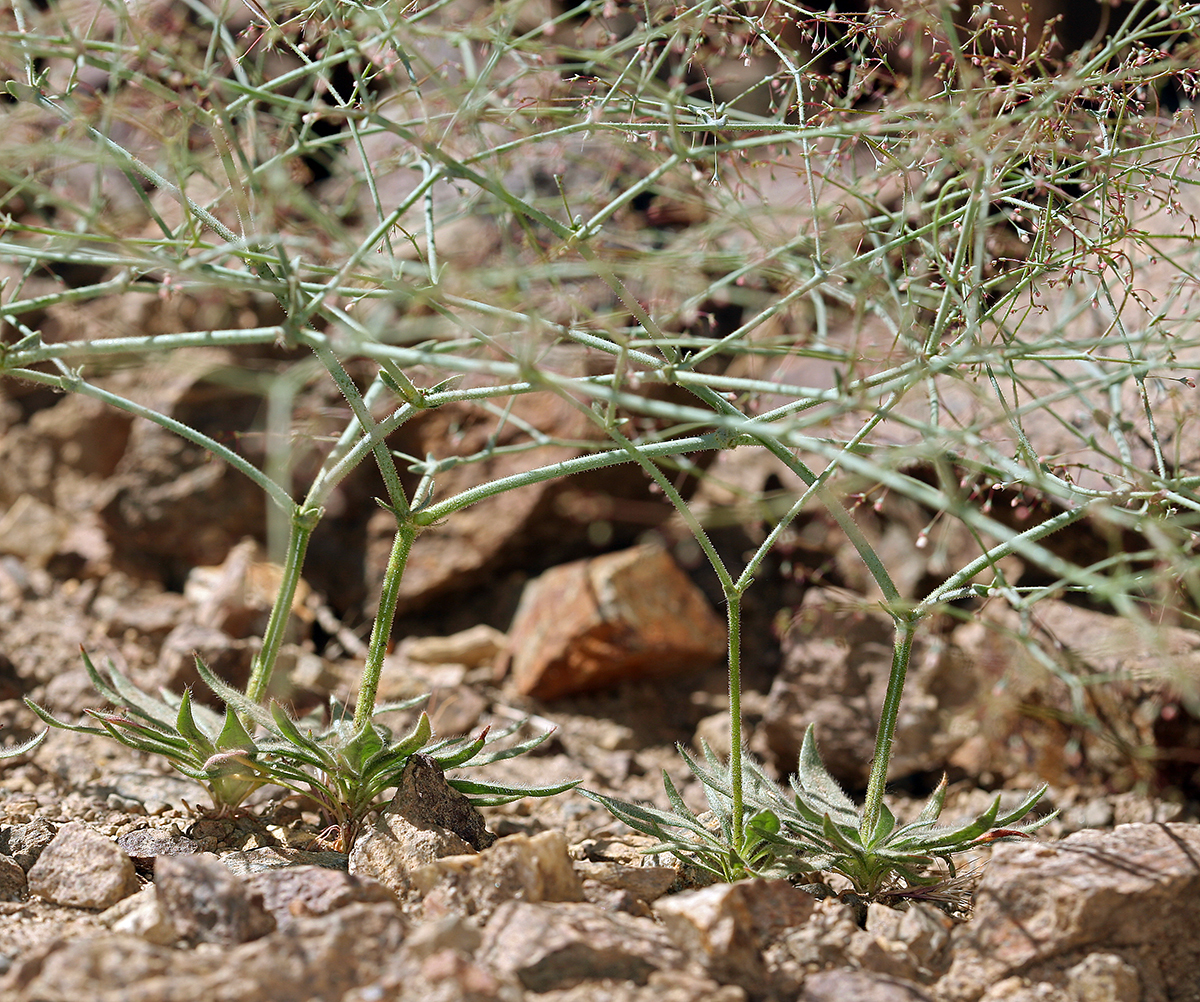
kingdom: Plantae
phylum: Tracheophyta
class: Magnoliopsida
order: Caryophyllales
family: Polygonaceae
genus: Oxytheca
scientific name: Oxytheca dendroidea
